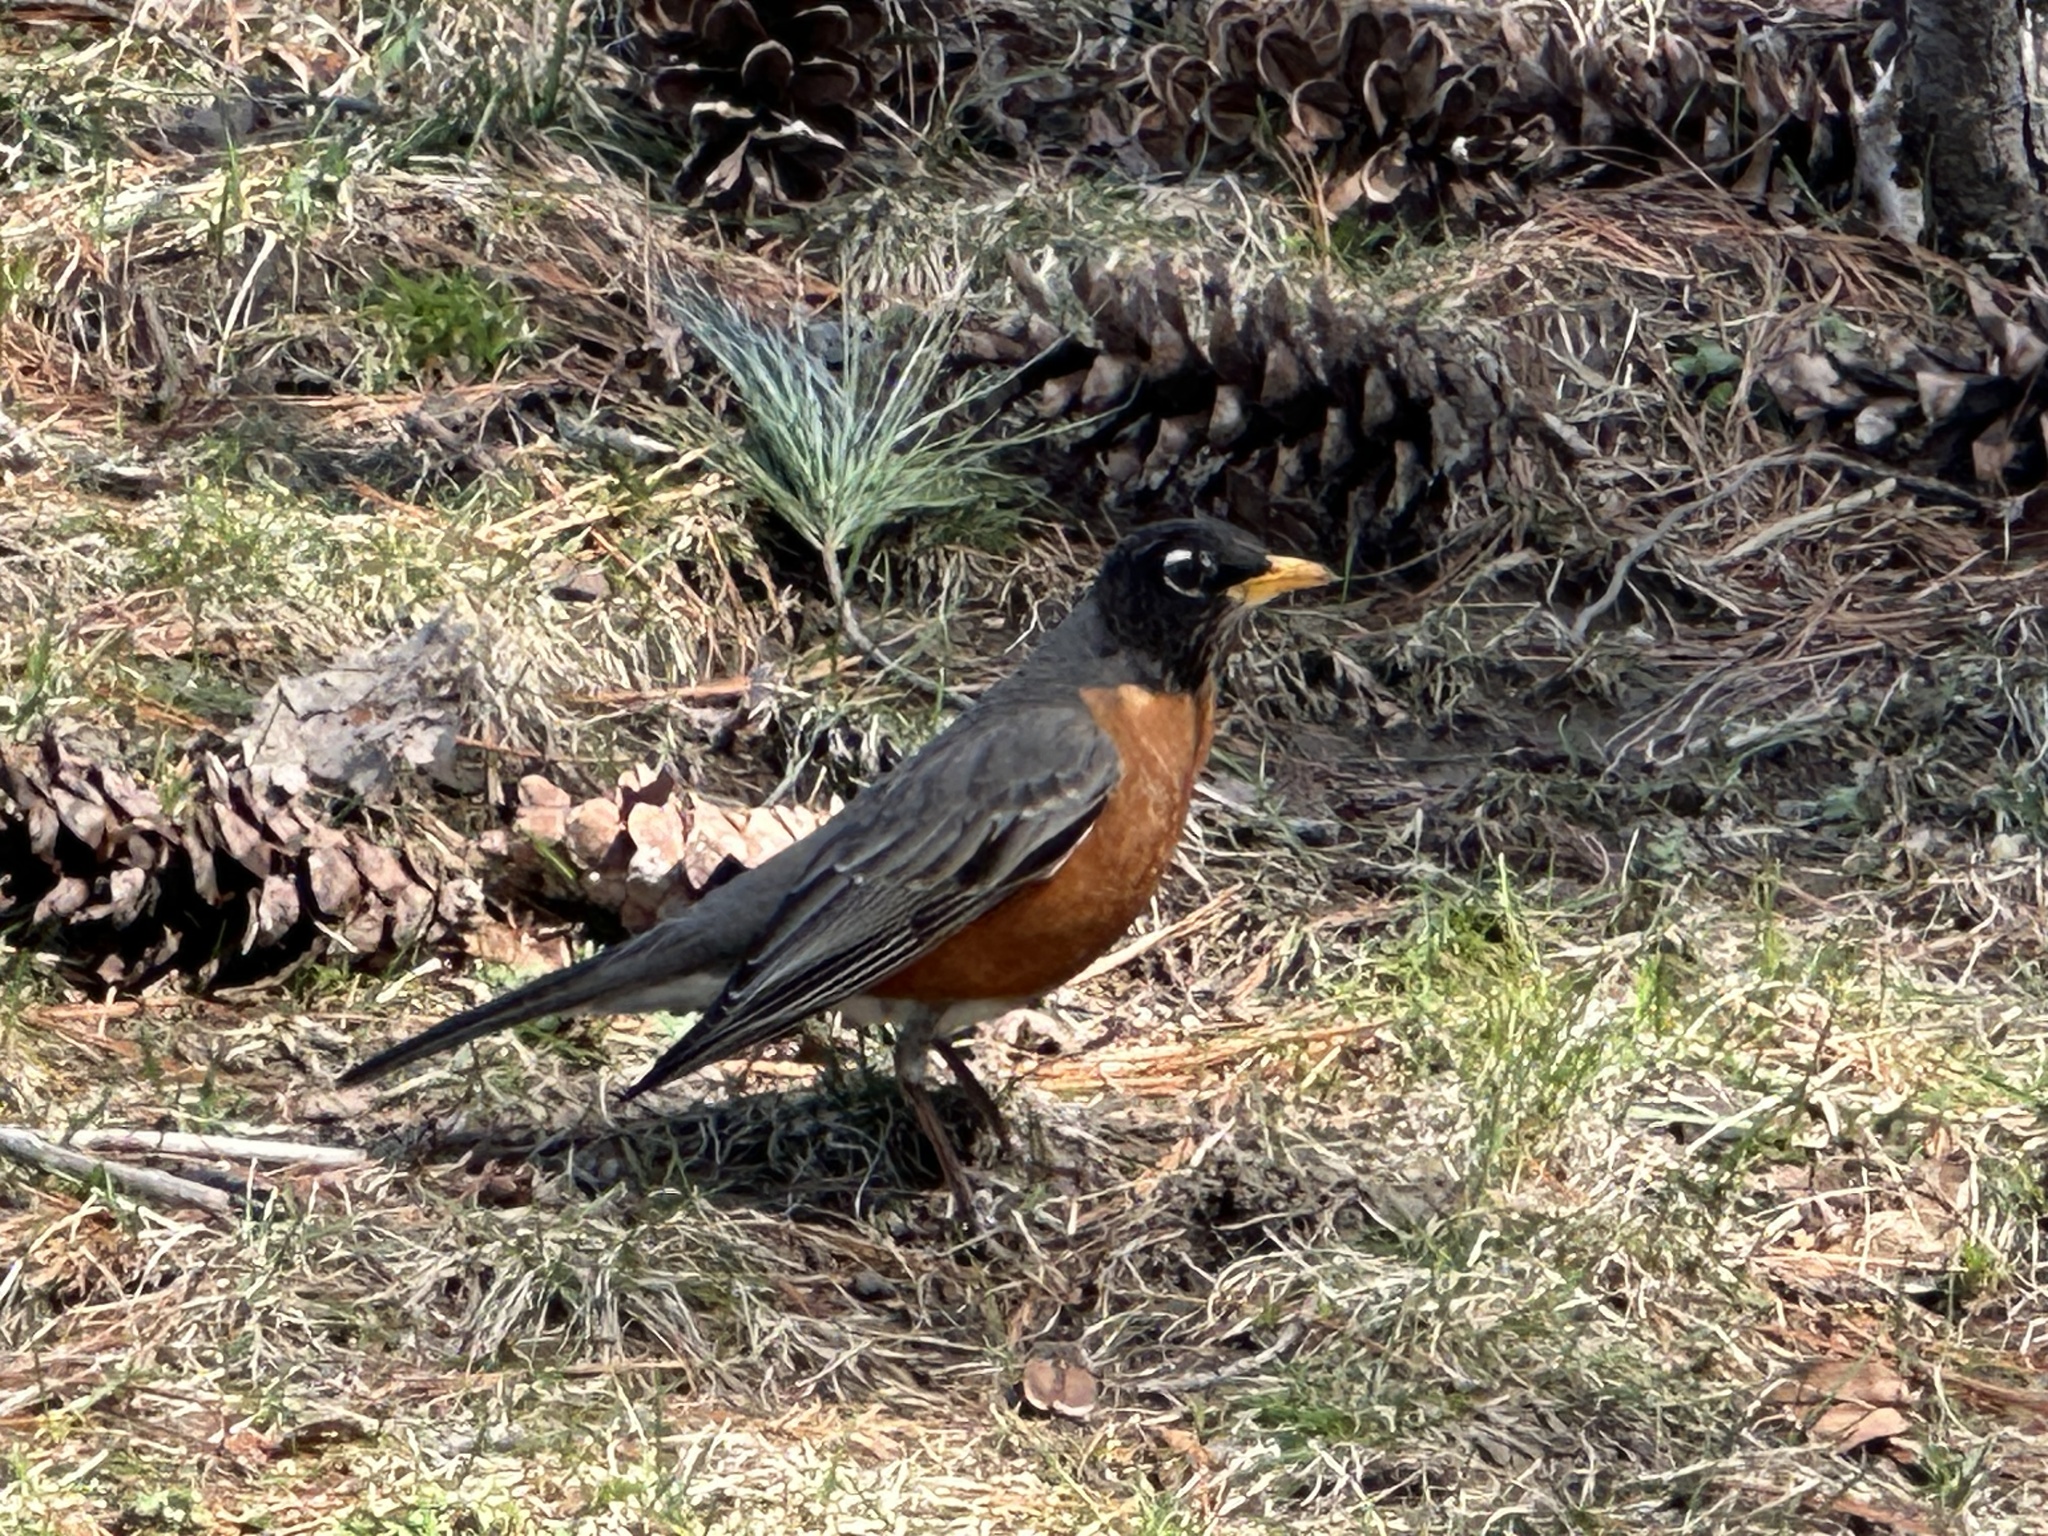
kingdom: Animalia
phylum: Chordata
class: Aves
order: Passeriformes
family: Turdidae
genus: Turdus
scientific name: Turdus migratorius
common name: American robin
